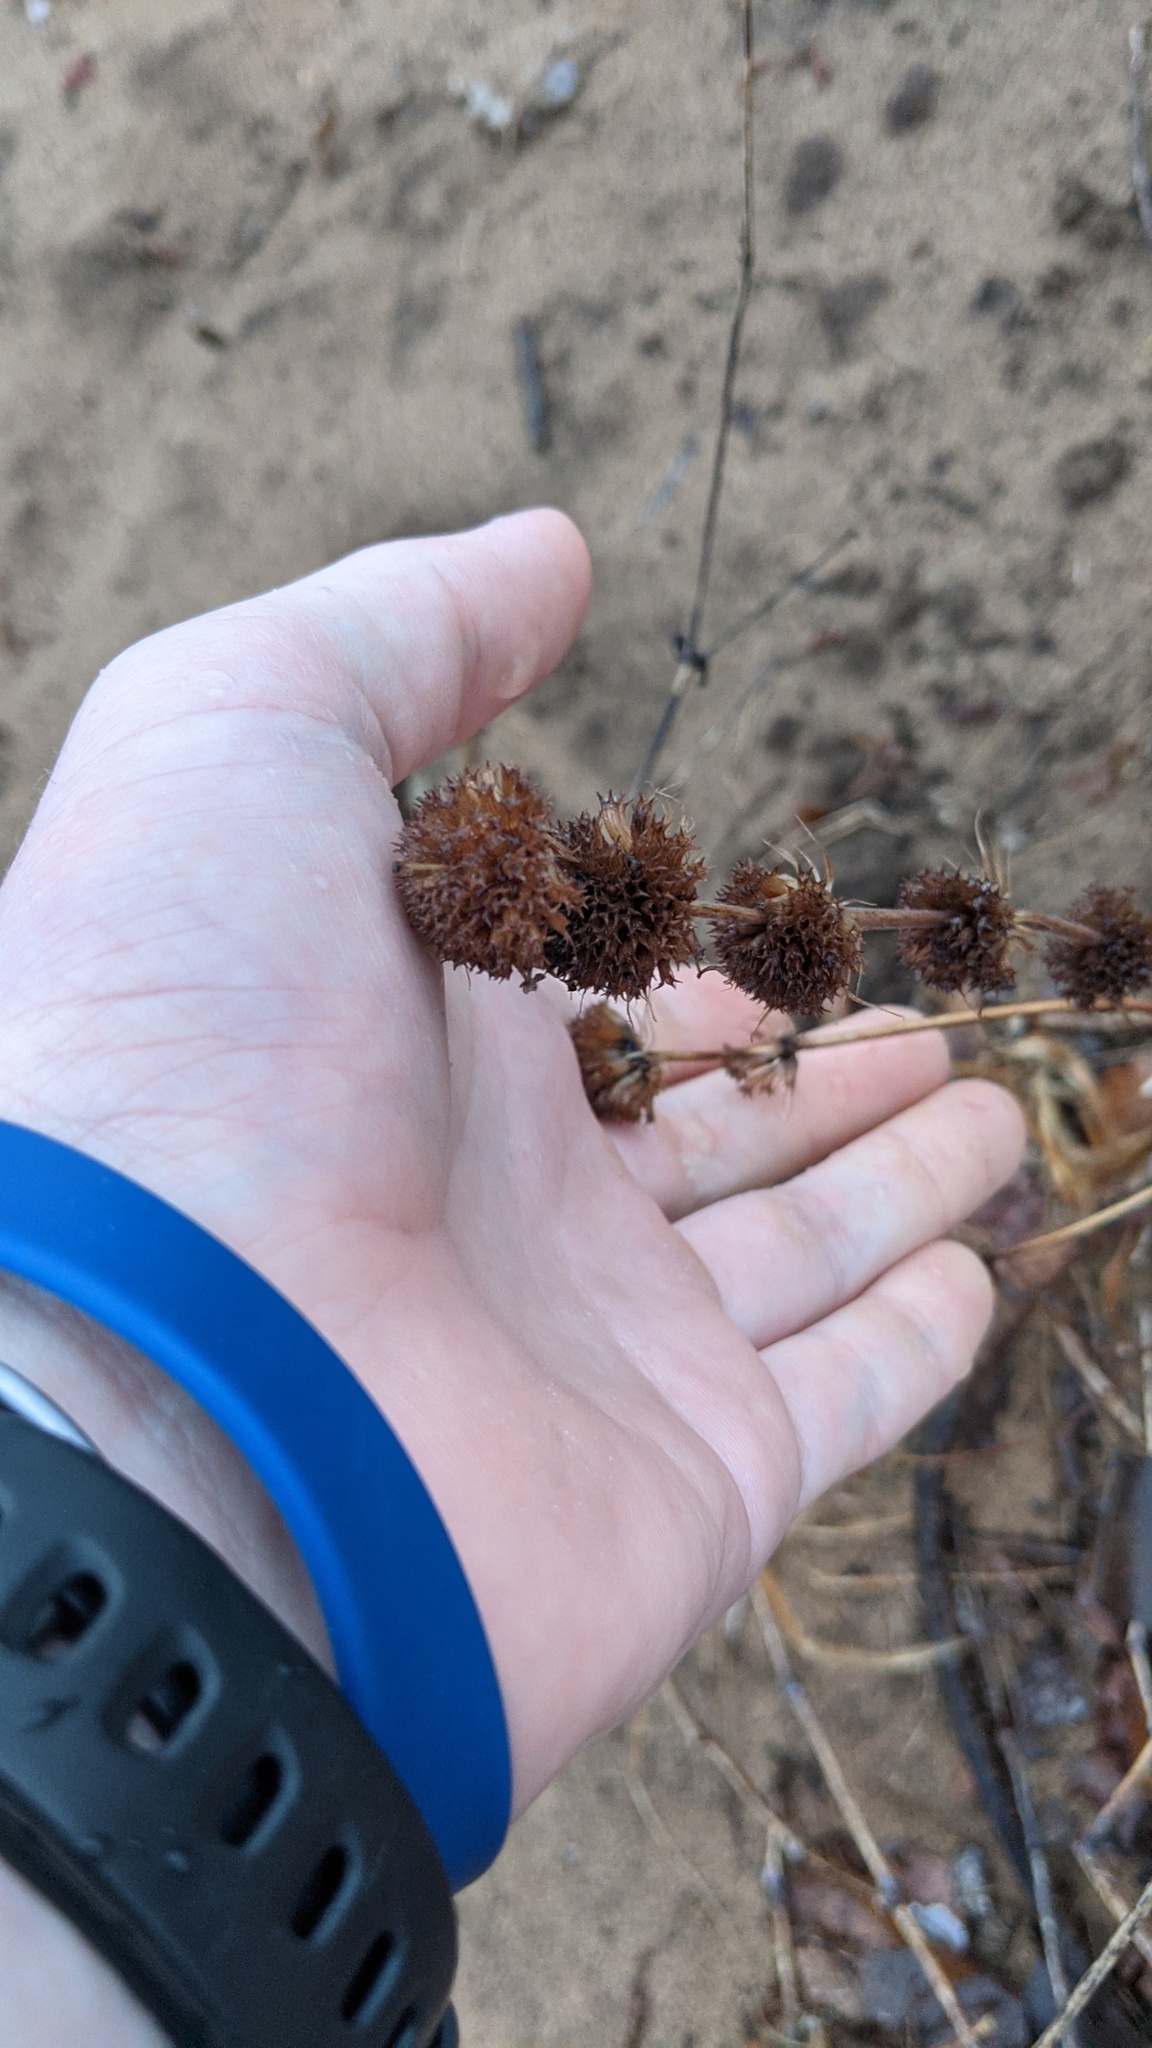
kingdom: Plantae
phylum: Tracheophyta
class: Magnoliopsida
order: Lamiales
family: Lamiaceae
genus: Monarda
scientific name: Monarda punctata
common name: Dotted monarda
